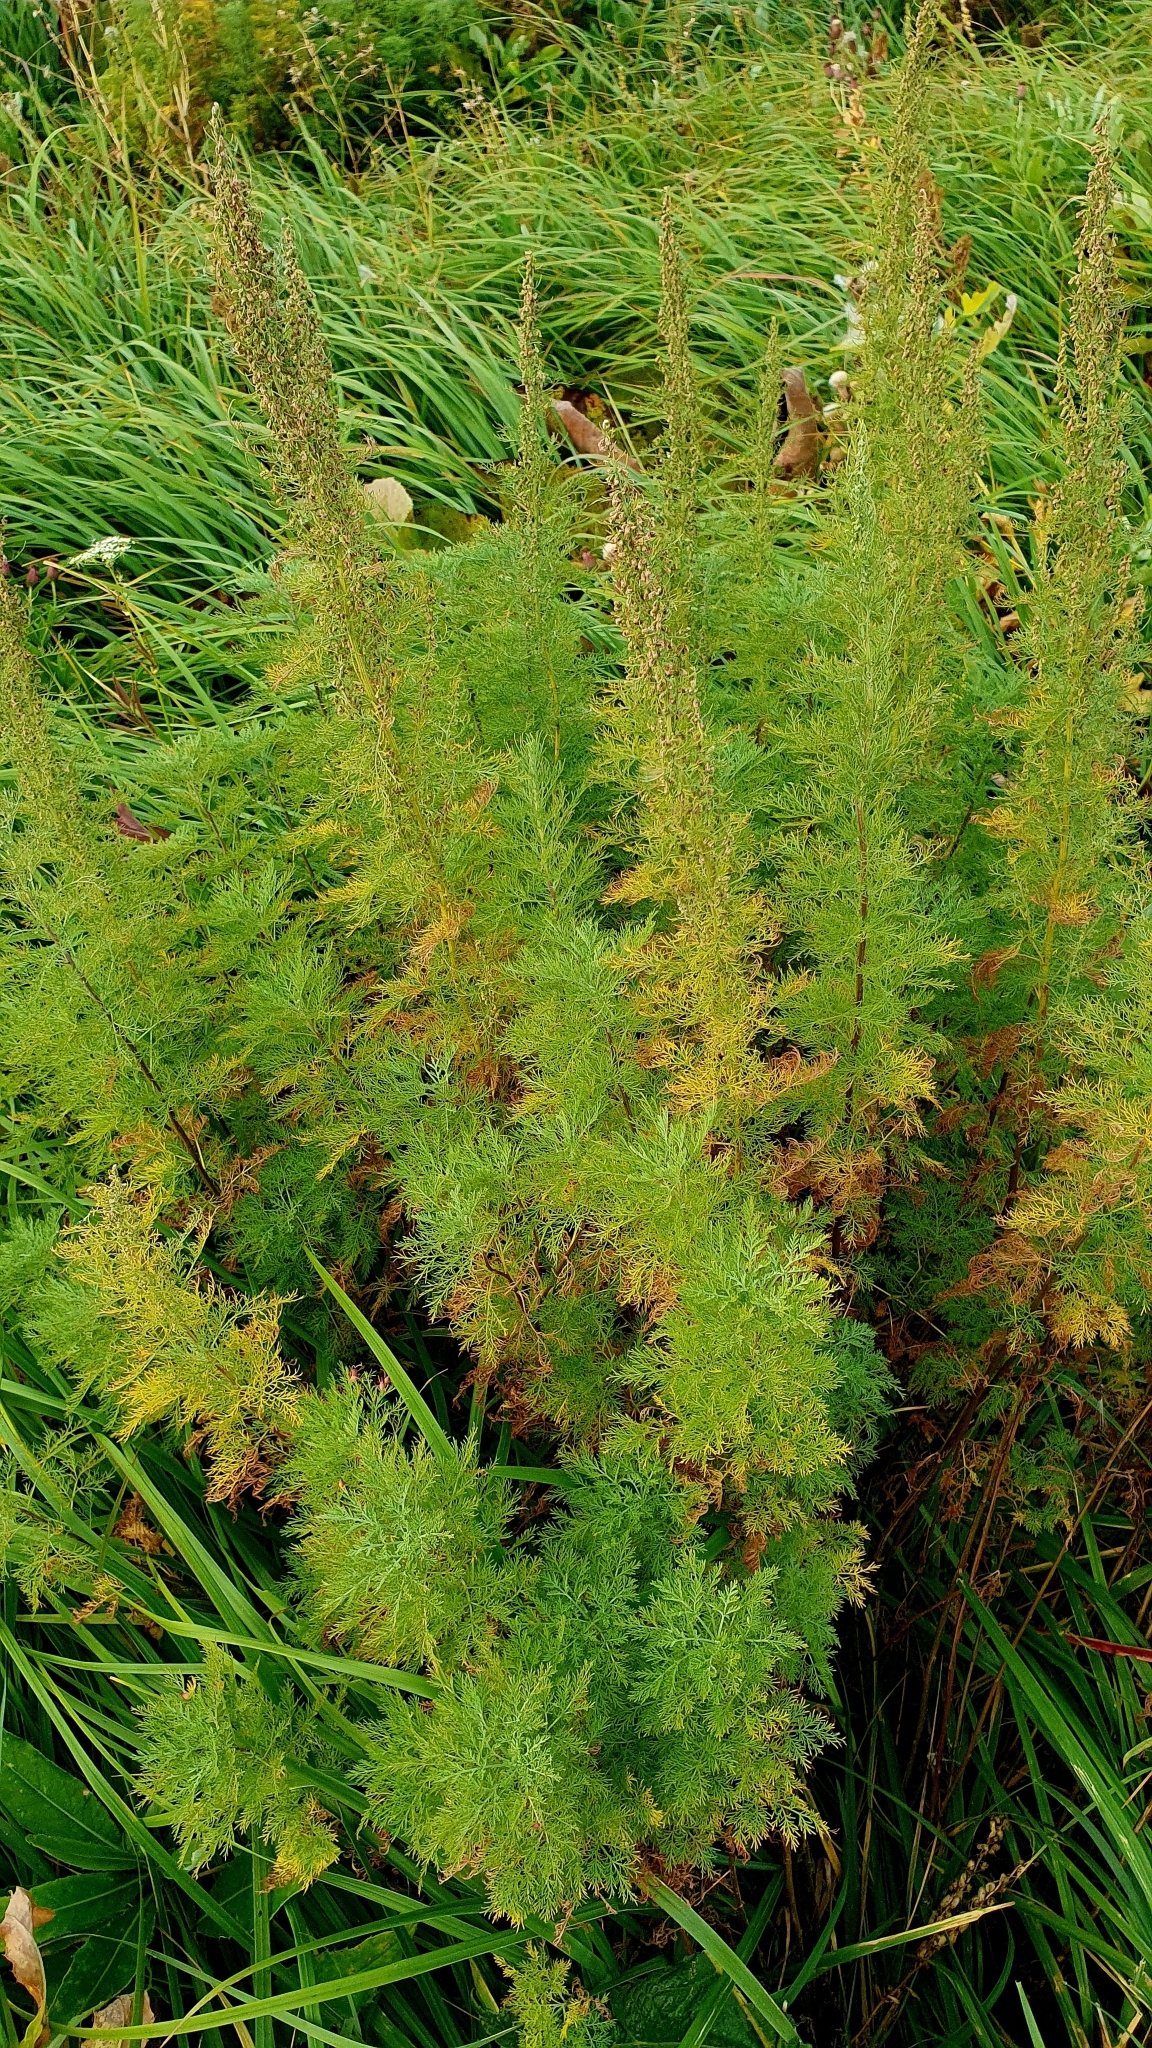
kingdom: Plantae
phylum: Tracheophyta
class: Magnoliopsida
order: Asterales
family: Asteraceae
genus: Artemisia
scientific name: Artemisia abrotanum
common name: Southernwood
